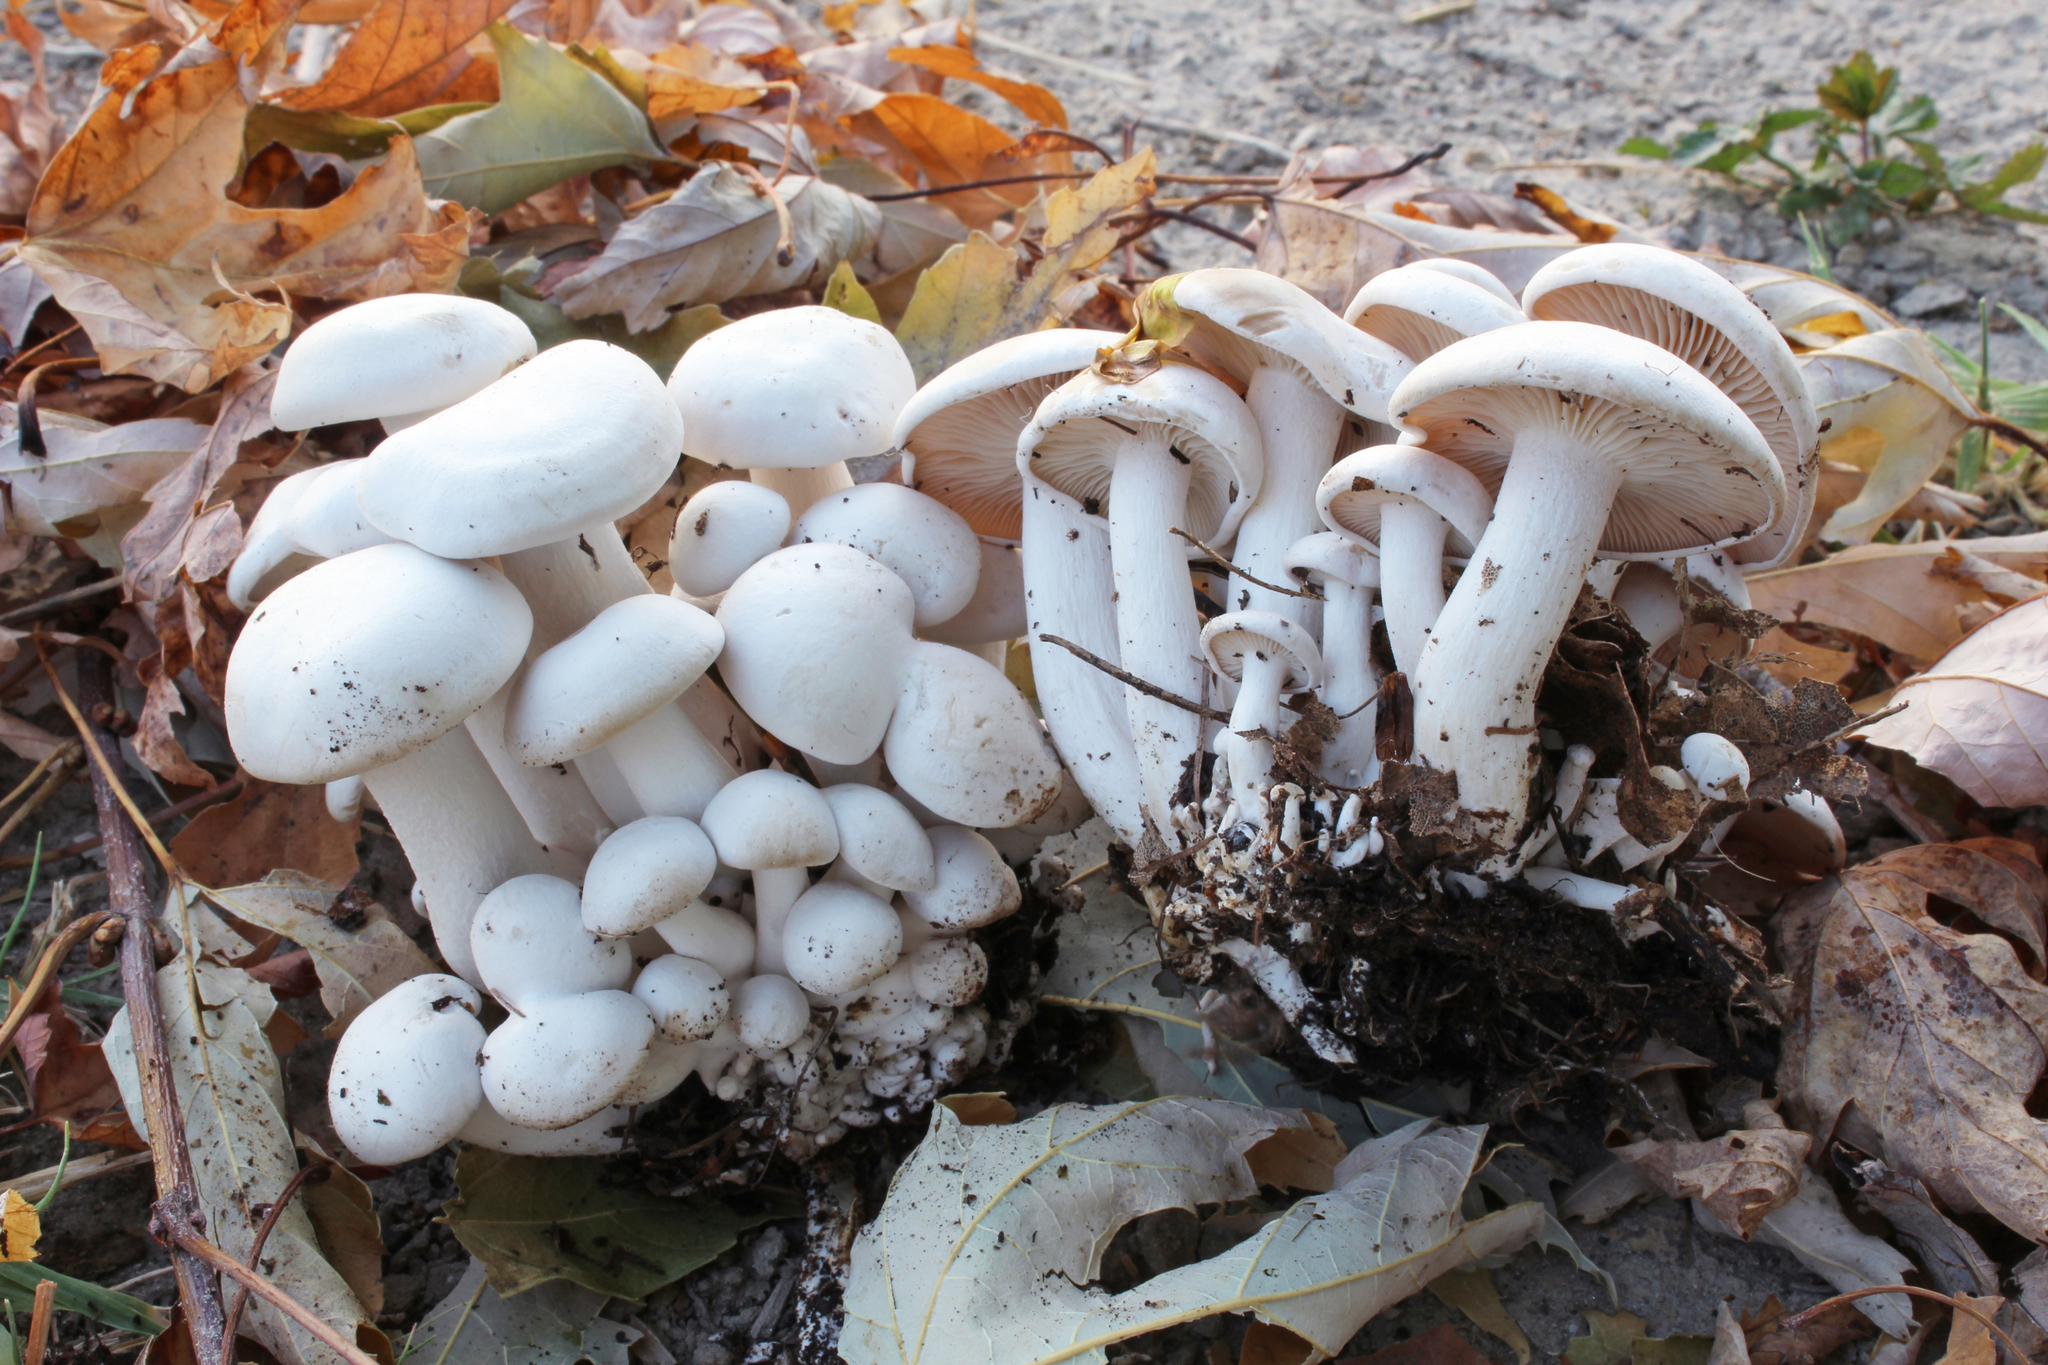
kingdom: Fungi
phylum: Basidiomycota
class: Agaricomycetes
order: Agaricales
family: Tricholomataceae
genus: Leucocybe
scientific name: Leucocybe connata
